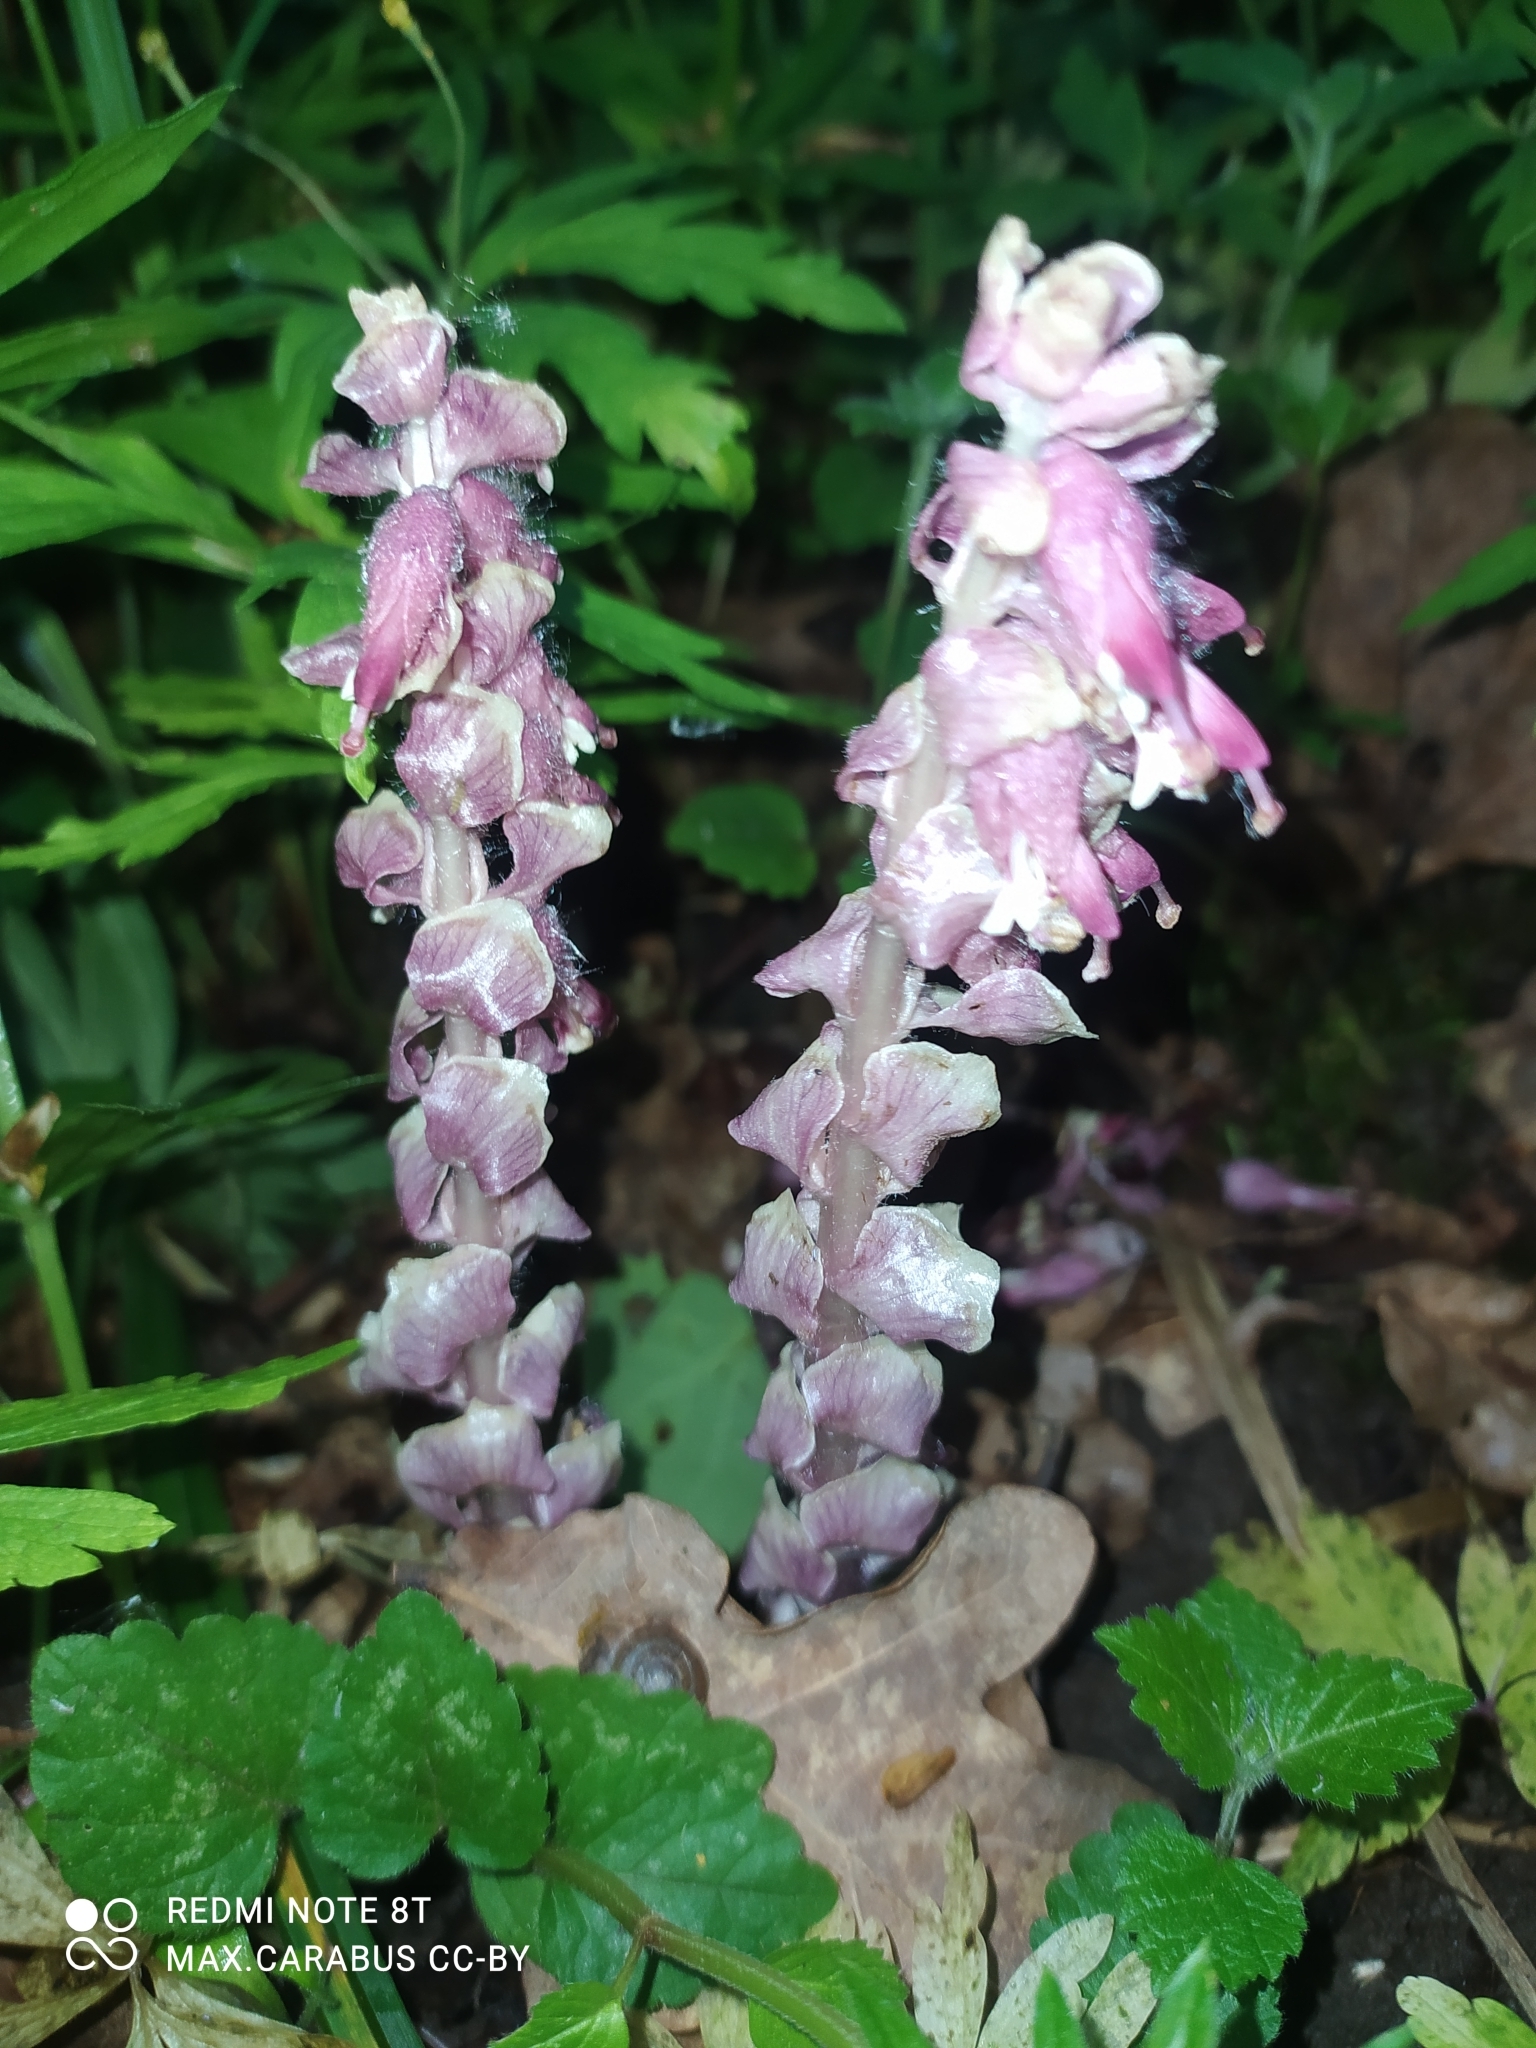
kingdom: Plantae
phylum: Tracheophyta
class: Magnoliopsida
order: Lamiales
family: Orobanchaceae
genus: Lathraea
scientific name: Lathraea squamaria
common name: Toothwort
